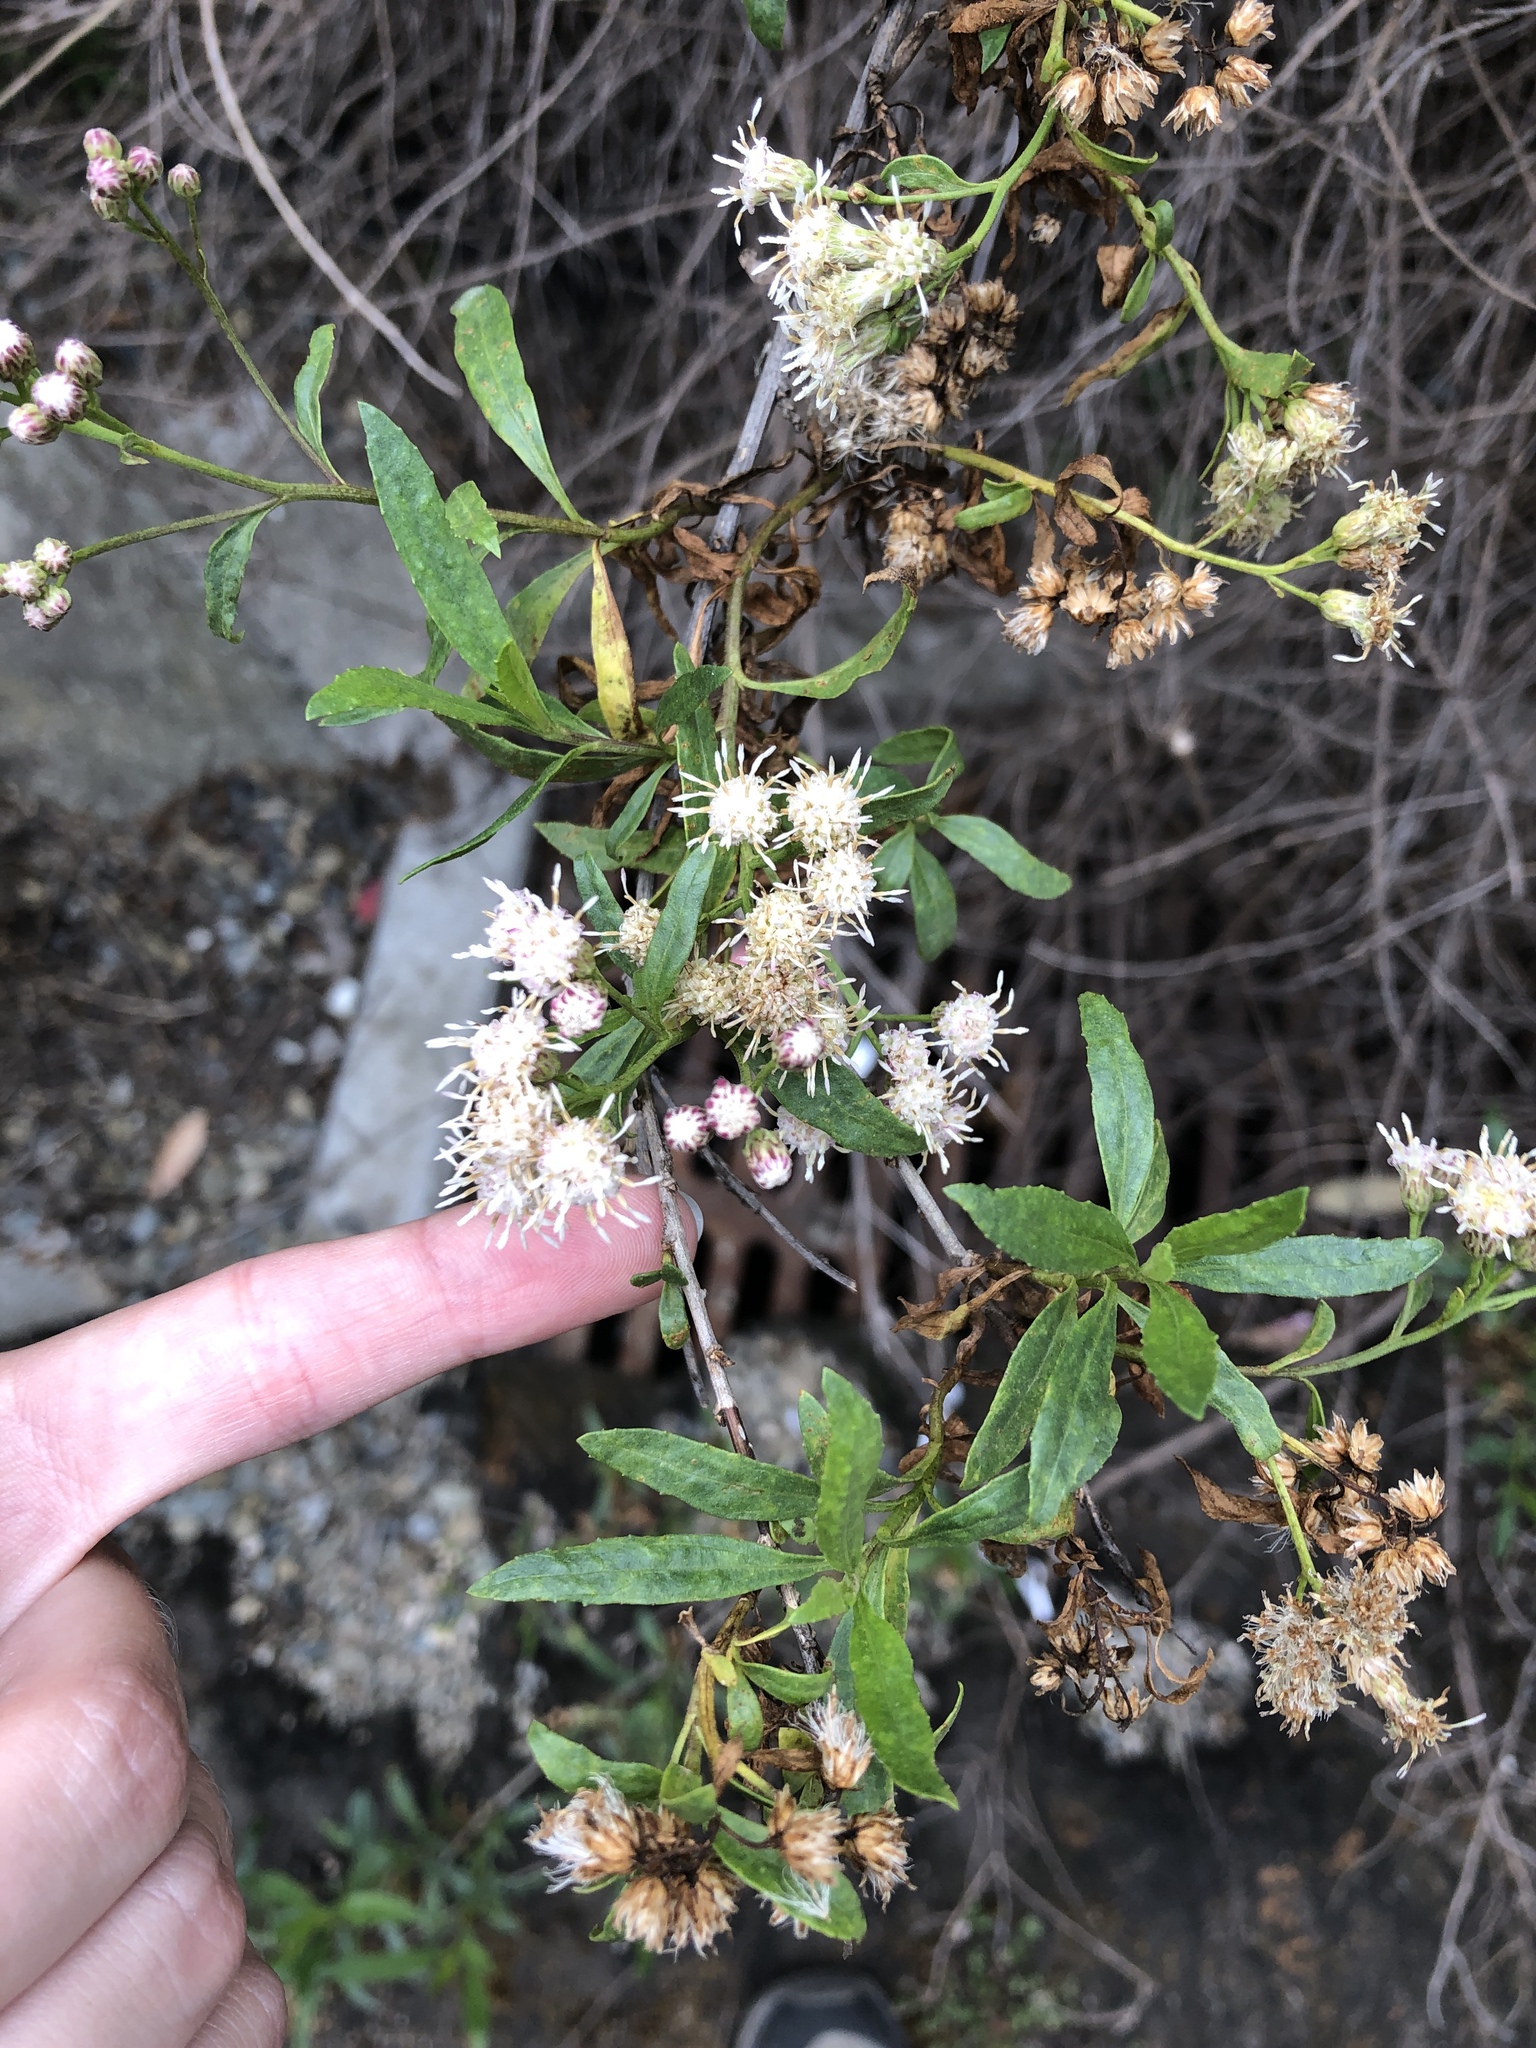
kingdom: Plantae
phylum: Tracheophyta
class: Magnoliopsida
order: Asterales
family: Asteraceae
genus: Baccharis
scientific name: Baccharis salicifolia
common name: Sticky baccharis
